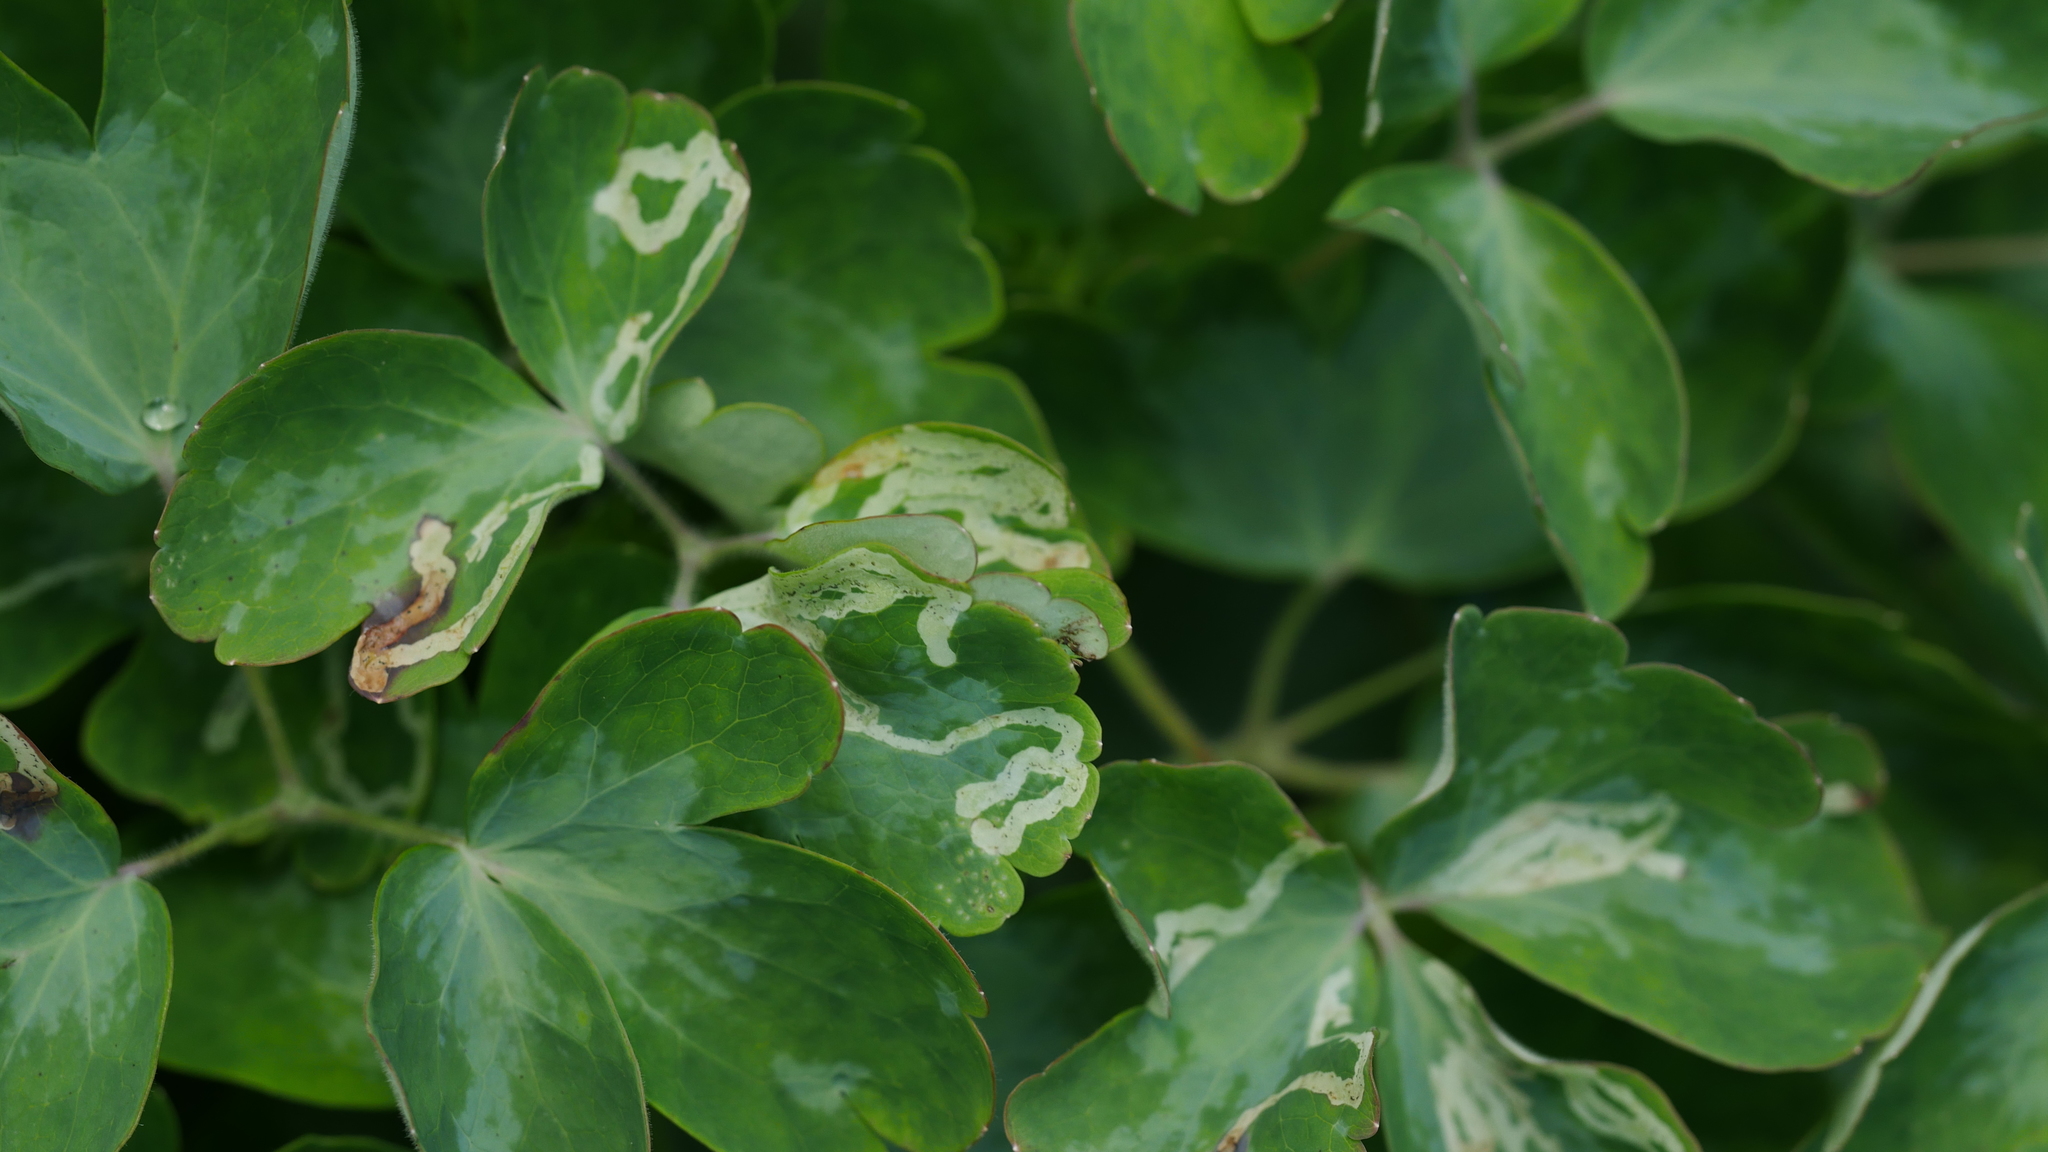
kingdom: Animalia
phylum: Arthropoda
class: Insecta
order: Diptera
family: Agromyzidae
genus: Phytomyza
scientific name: Phytomyza
